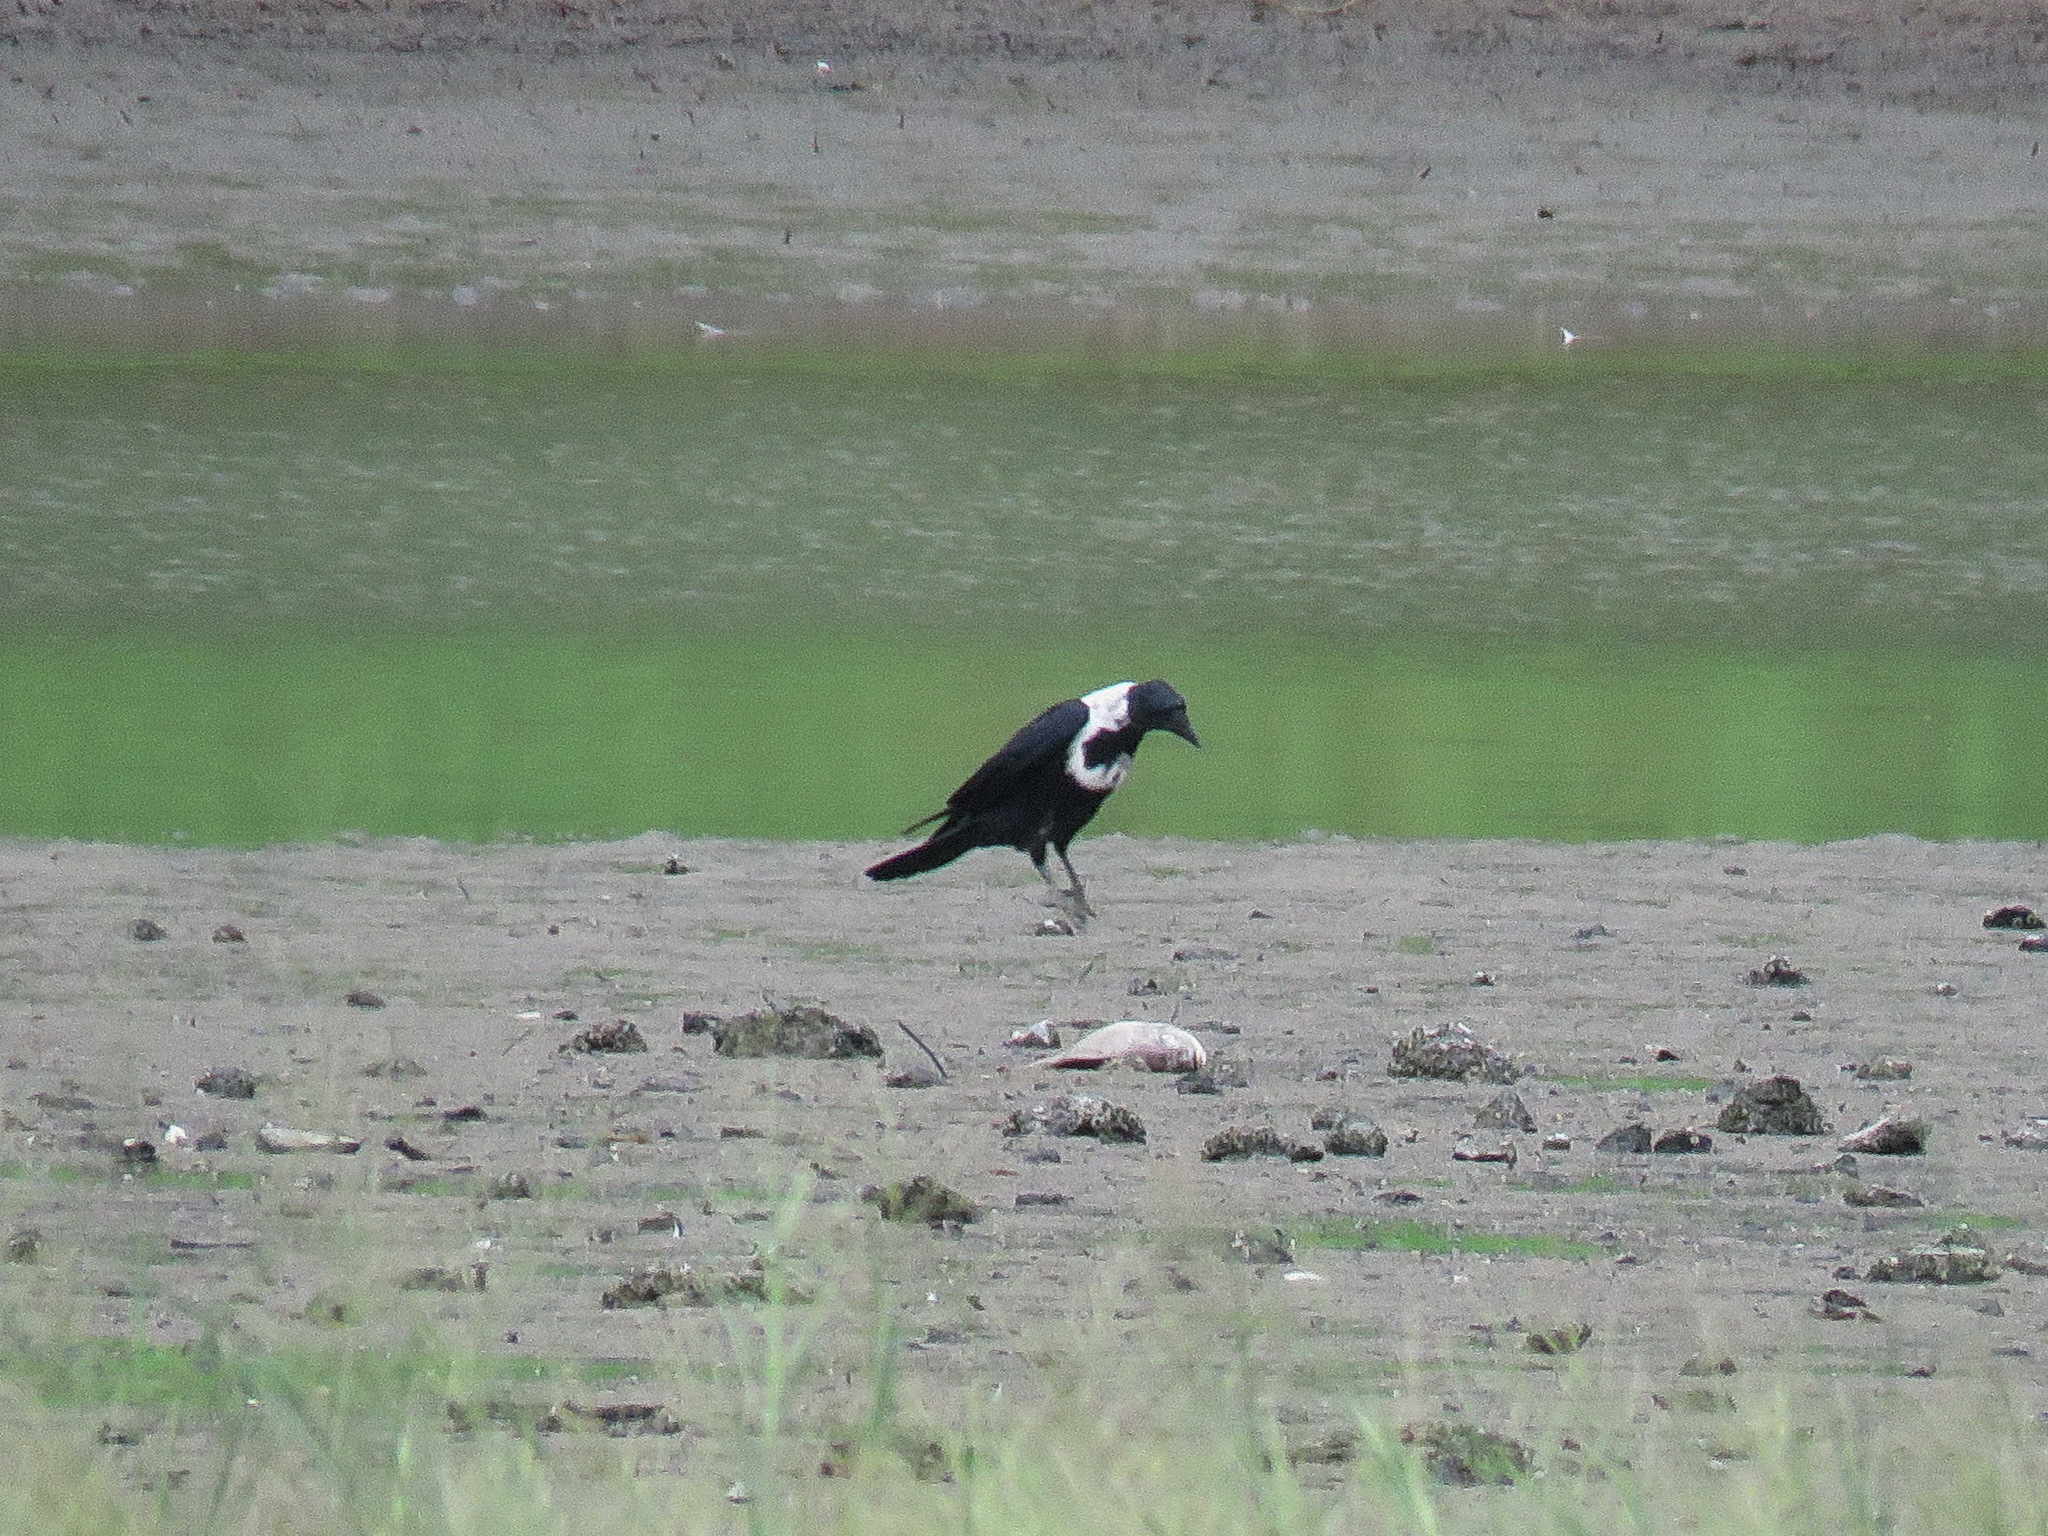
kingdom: Animalia
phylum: Chordata
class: Aves
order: Passeriformes
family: Corvidae
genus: Corvus
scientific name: Corvus pectoralis
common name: Collared crow
